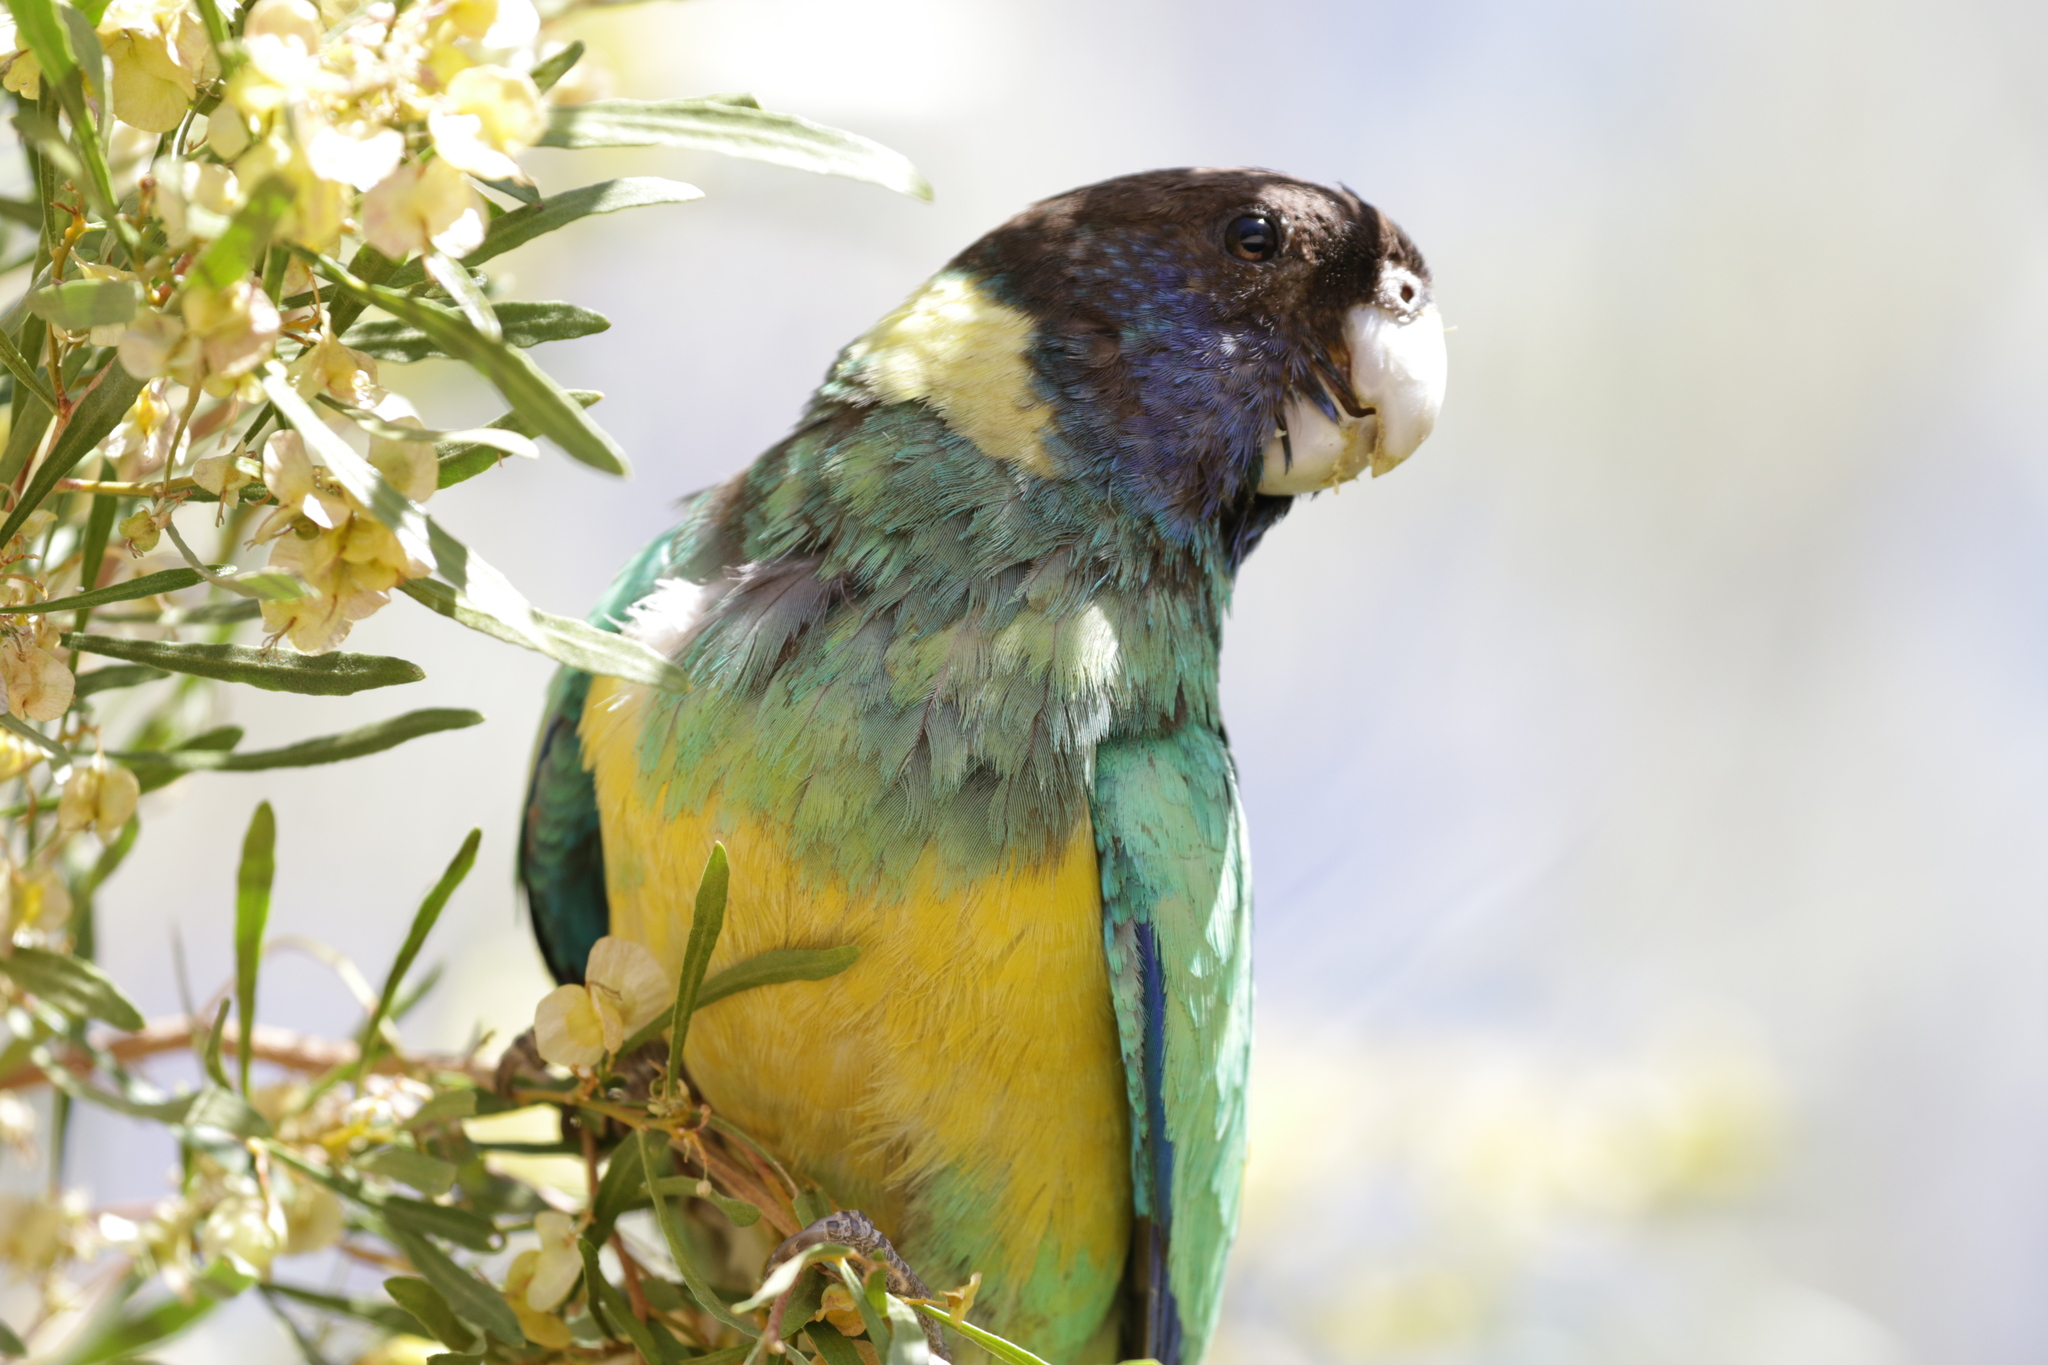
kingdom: Animalia
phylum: Chordata
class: Aves
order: Psittaciformes
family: Psittacidae
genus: Barnardius
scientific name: Barnardius zonarius
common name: Australian ringneck
